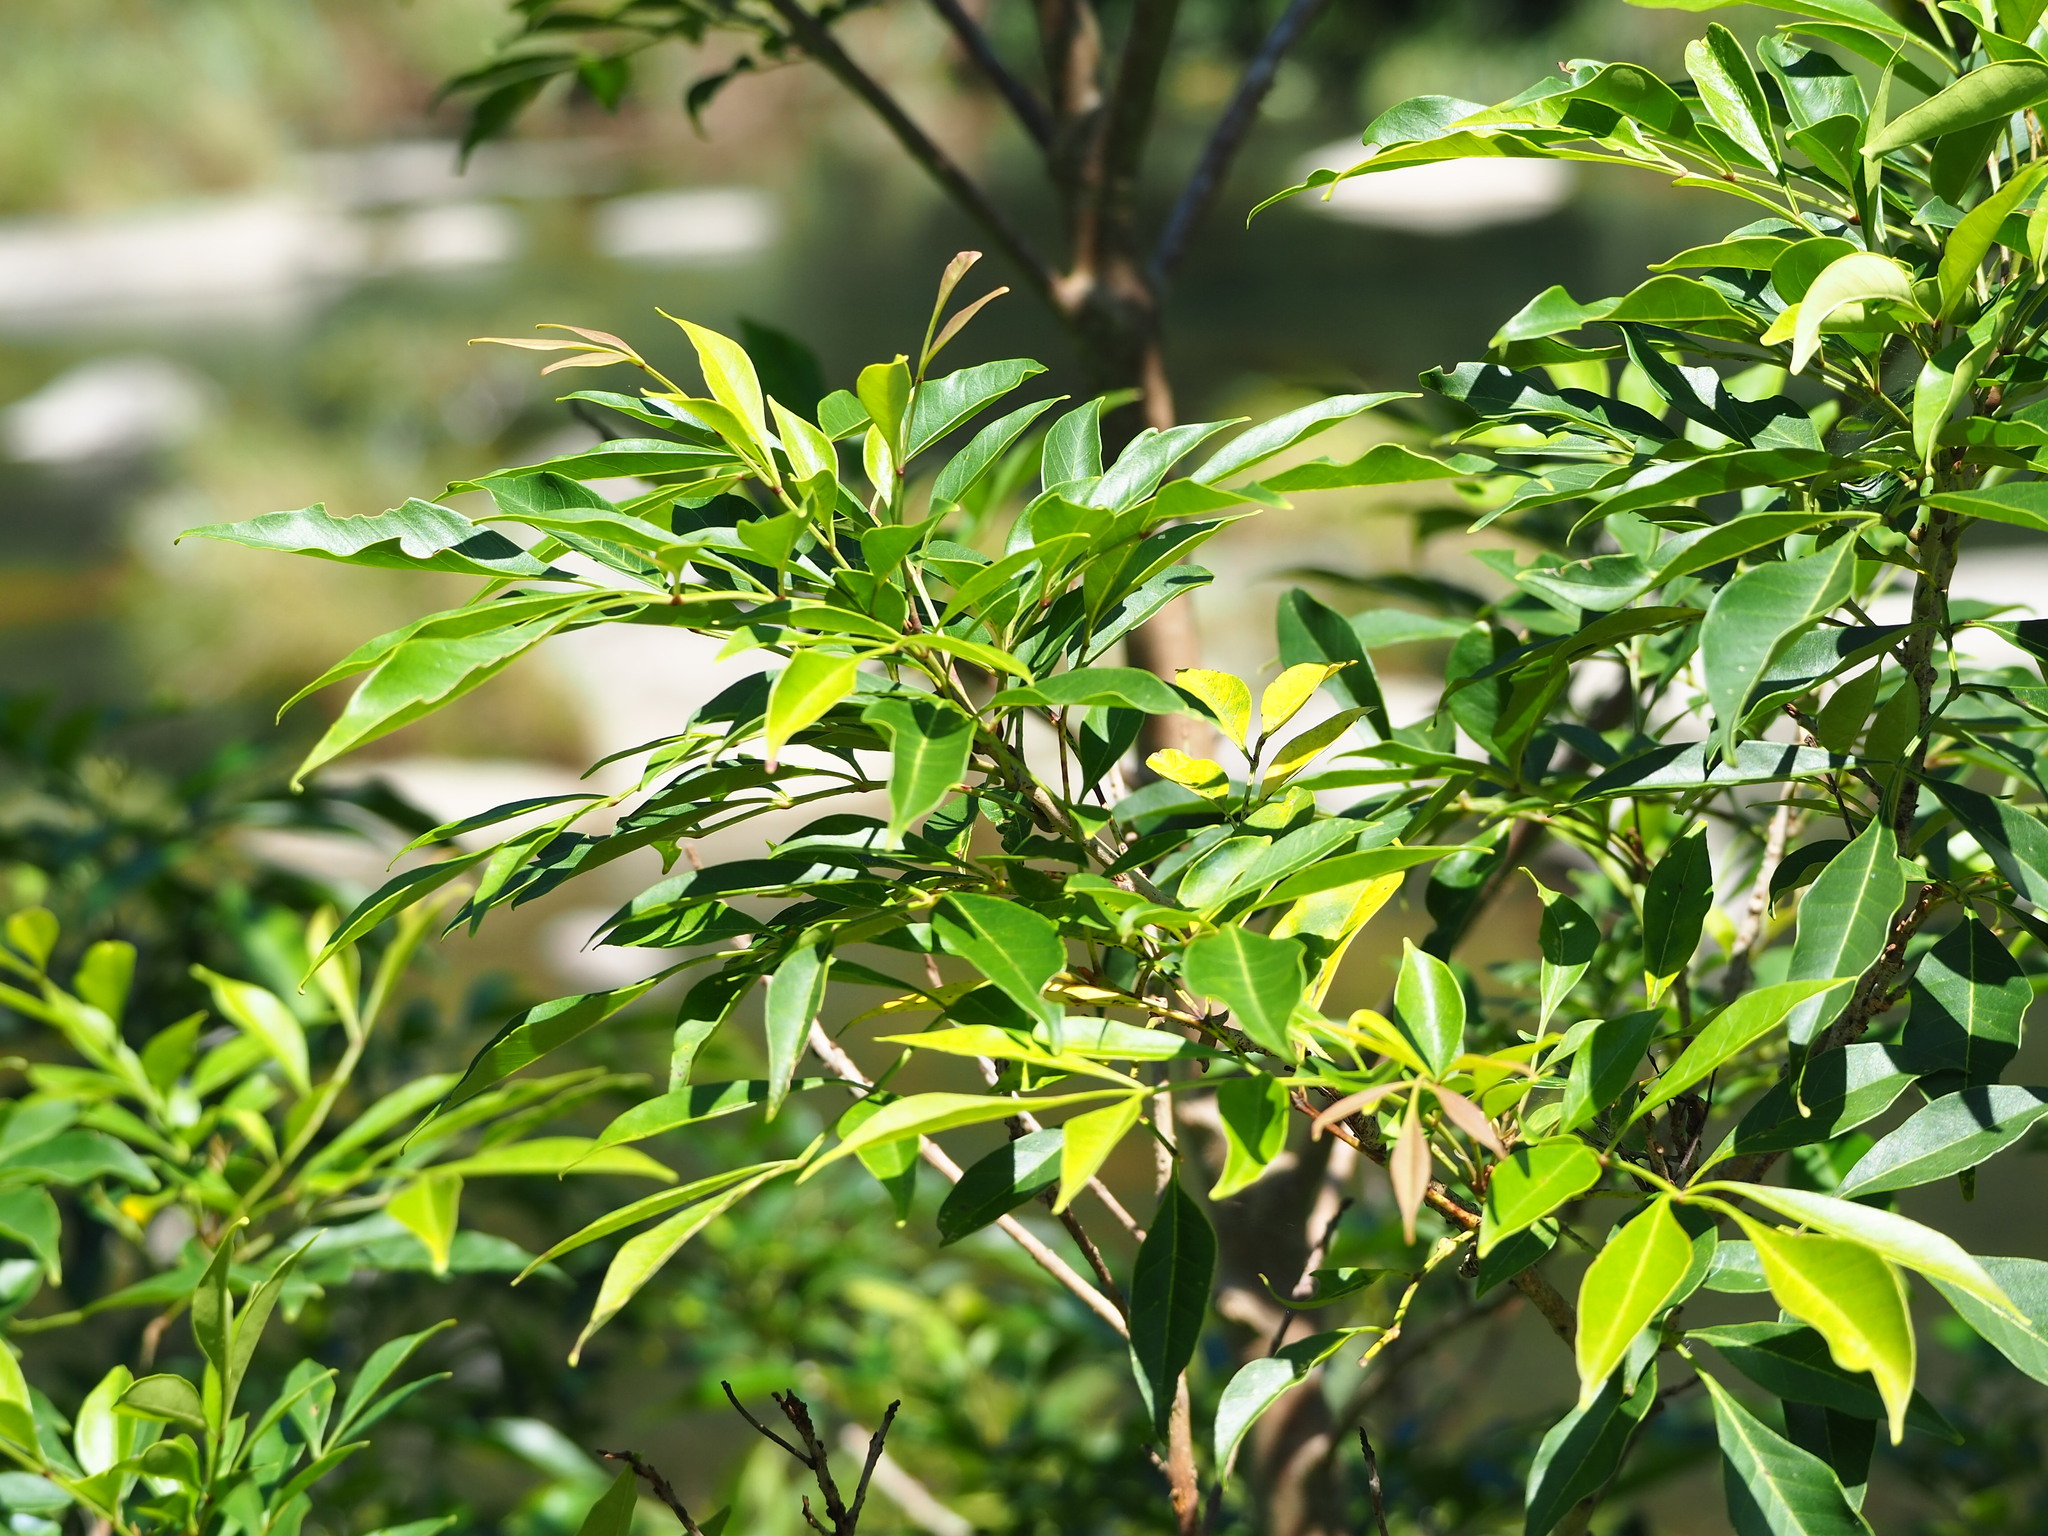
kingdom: Plantae
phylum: Tracheophyta
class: Magnoliopsida
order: Lamiales
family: Oleaceae
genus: Fraxinus
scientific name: Fraxinus griffithii
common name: Himalayan ash
